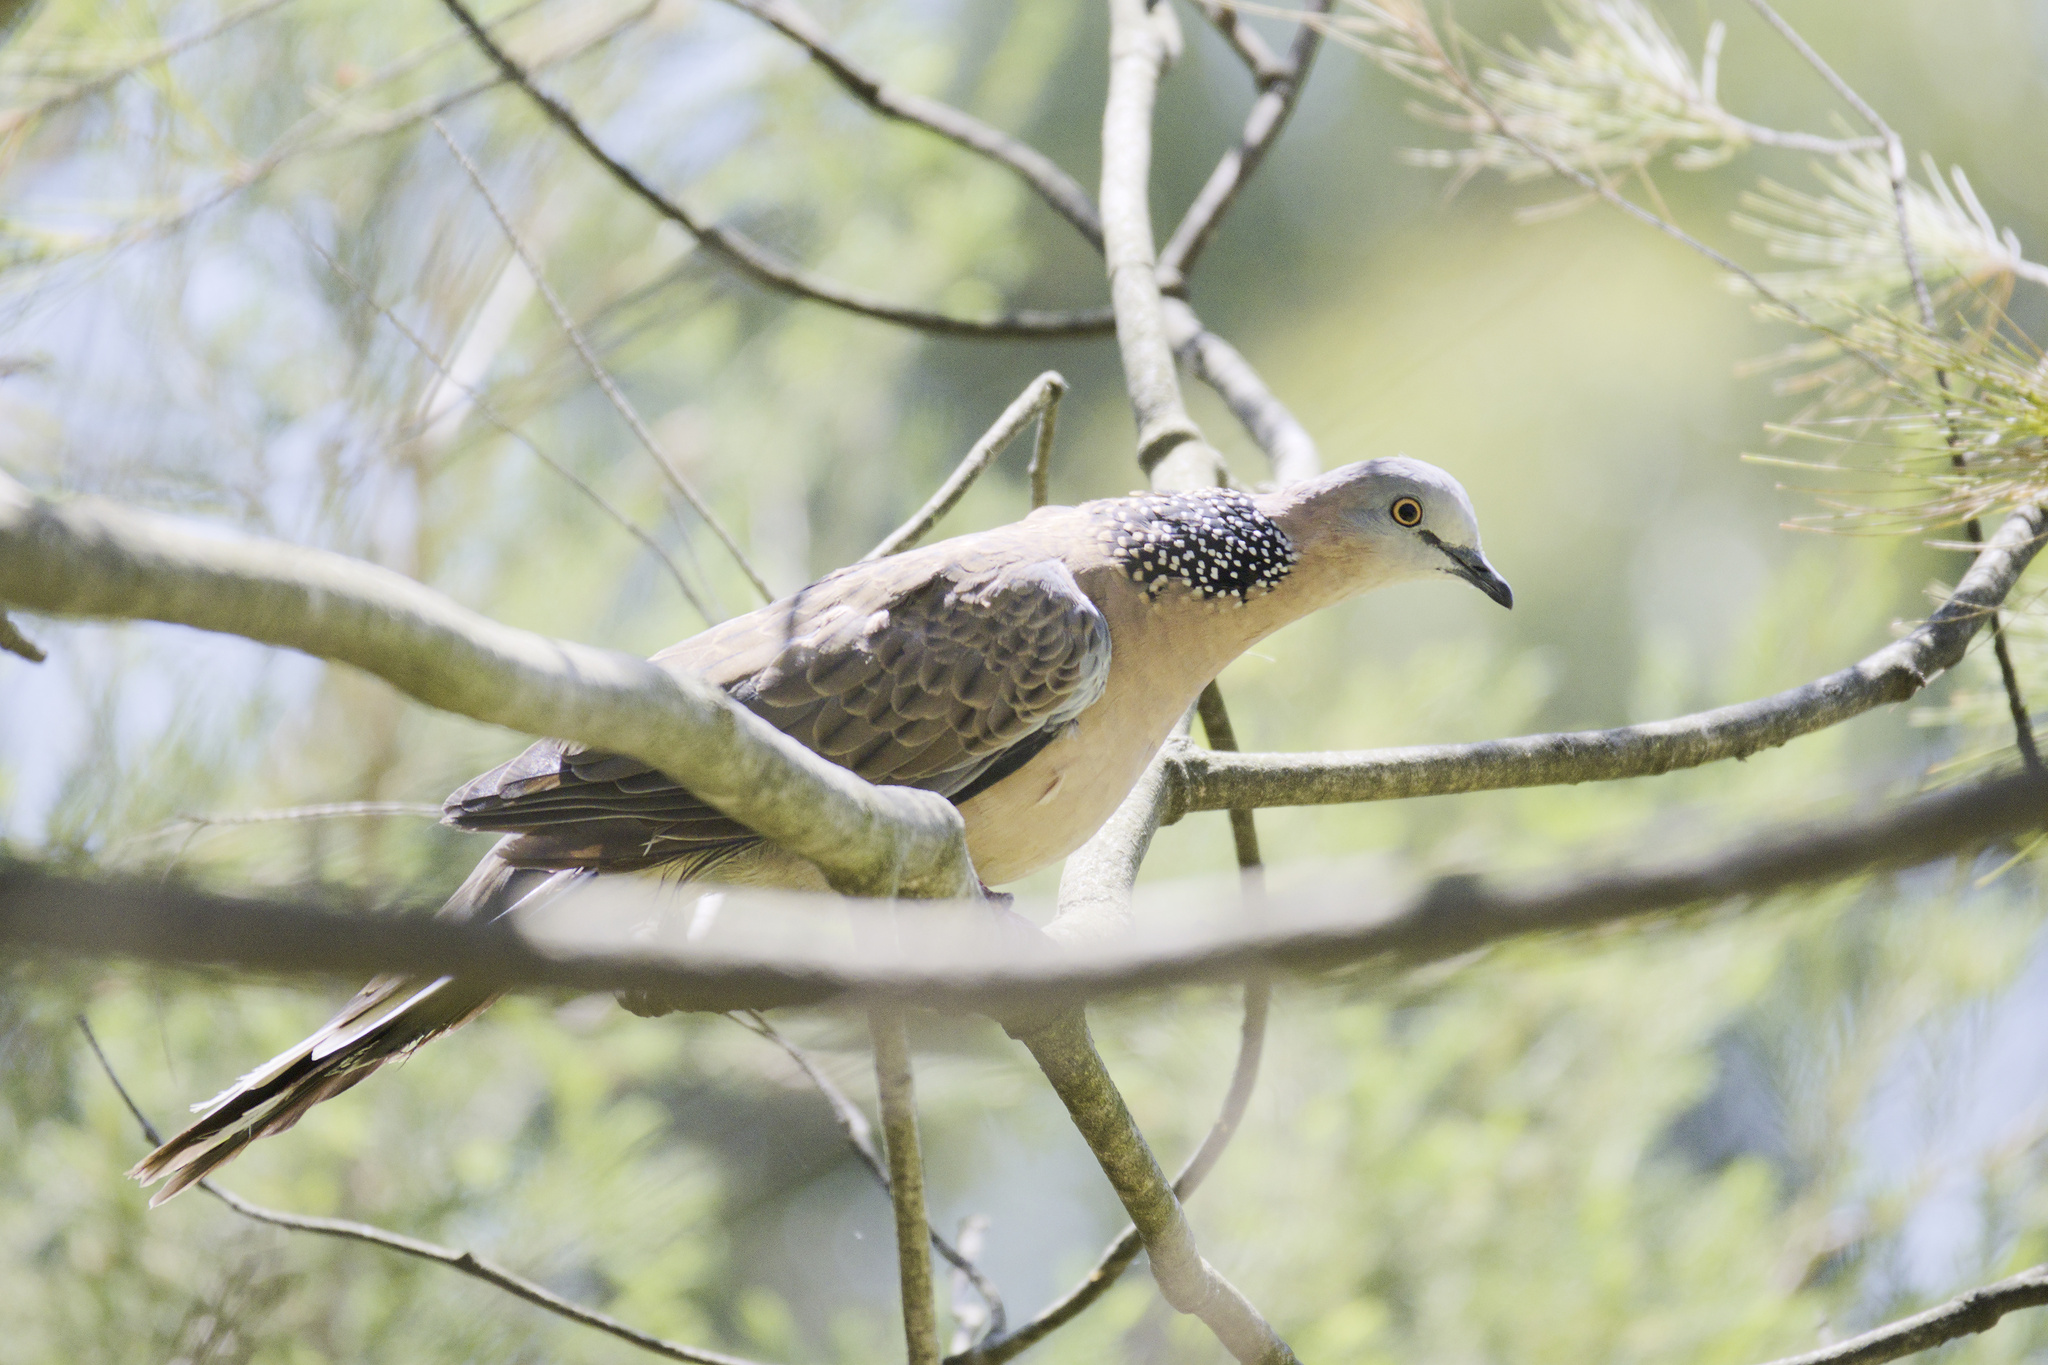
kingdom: Animalia
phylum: Chordata
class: Aves
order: Columbiformes
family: Columbidae
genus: Spilopelia
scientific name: Spilopelia chinensis
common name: Spotted dove
